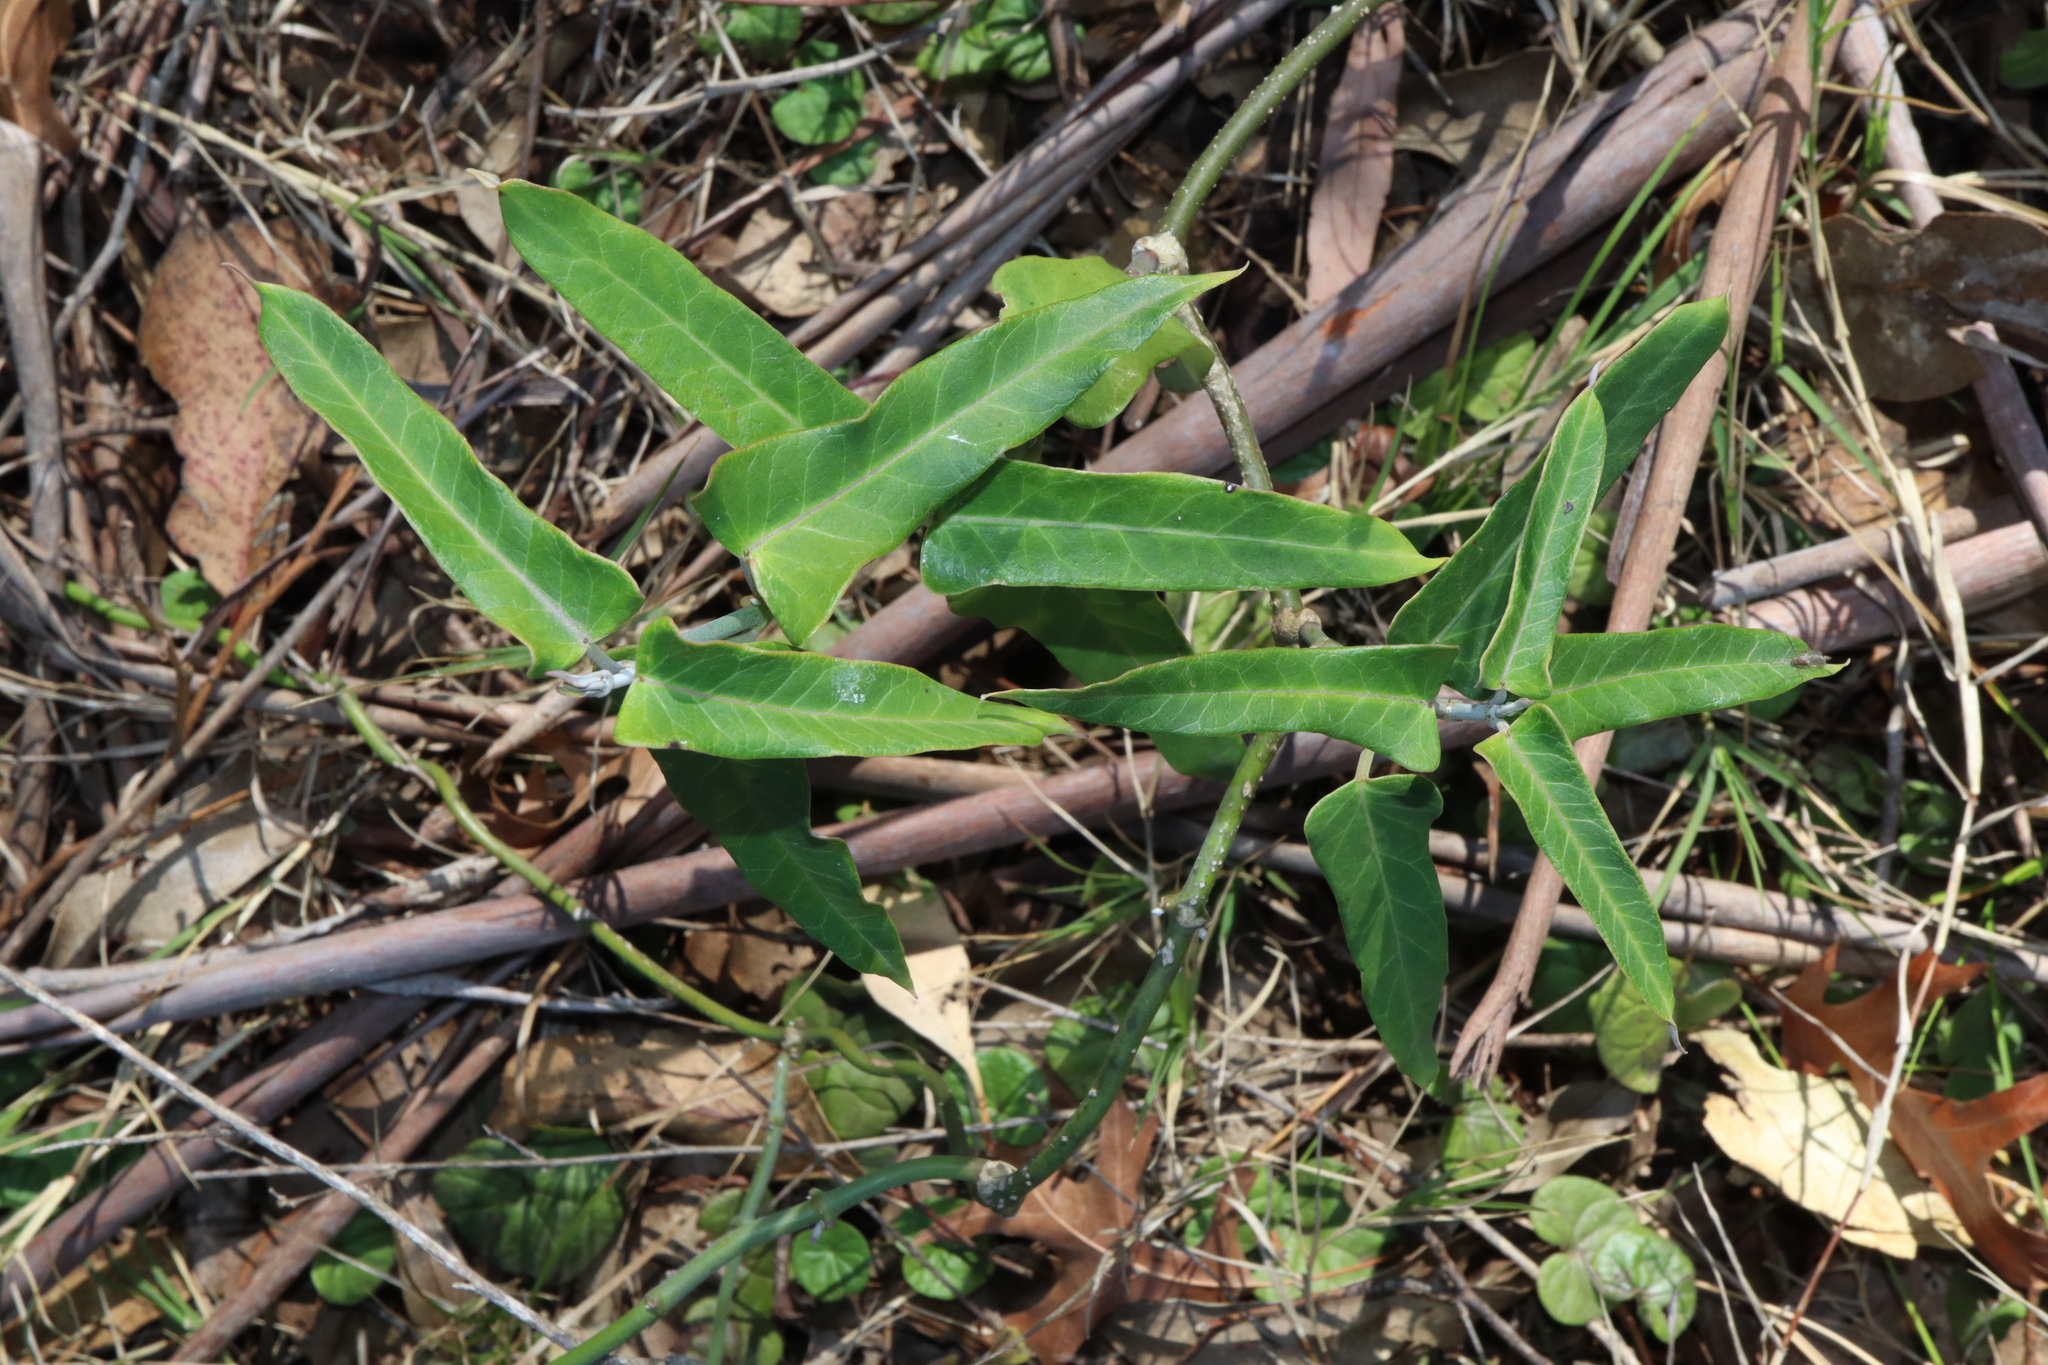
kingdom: Plantae
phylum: Tracheophyta
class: Magnoliopsida
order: Gentianales
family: Apocynaceae
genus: Araujia
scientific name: Araujia sericifera
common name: White bladderflower
